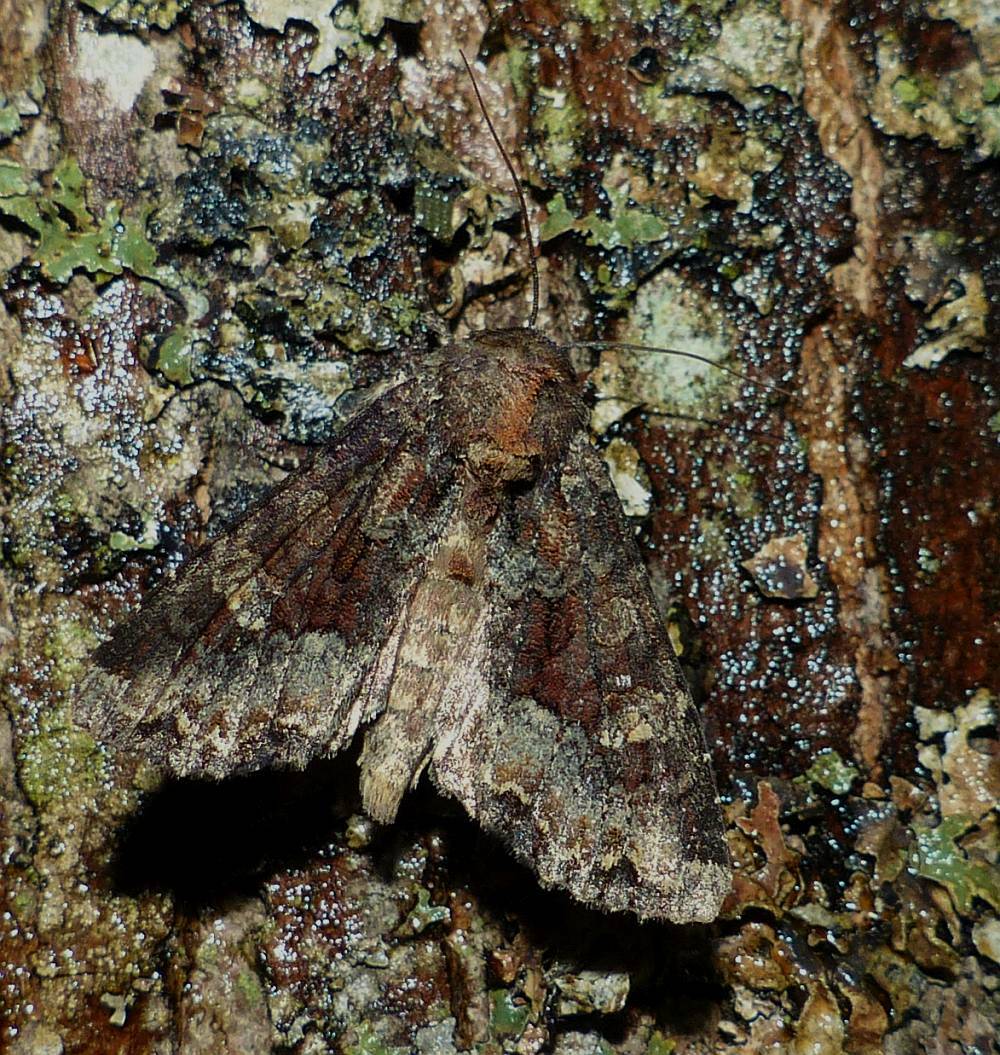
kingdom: Animalia
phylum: Arthropoda
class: Insecta
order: Lepidoptera
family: Noctuidae
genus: Apamea
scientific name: Apamea amputatrix
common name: Yellow-headed cutworm moth
